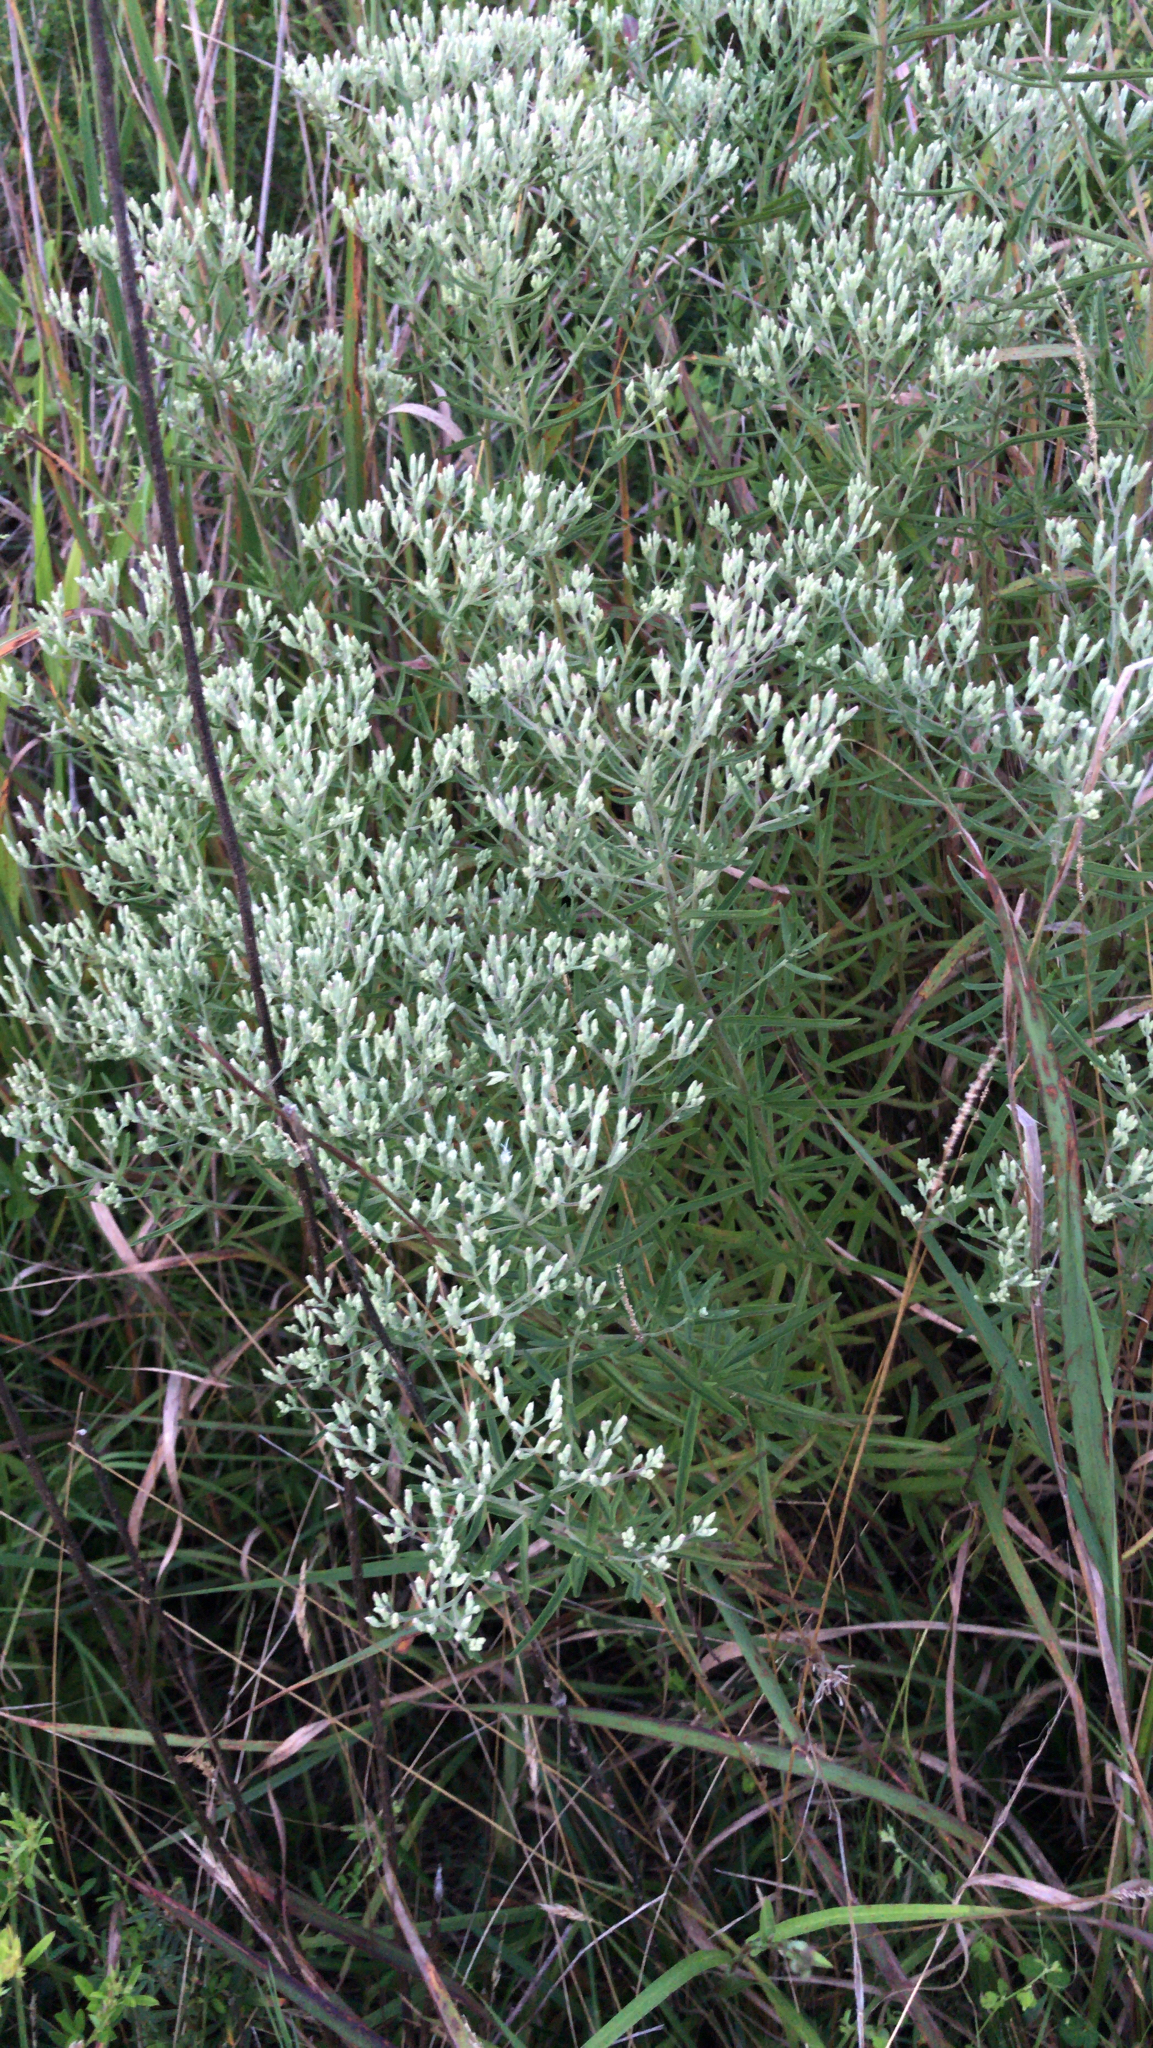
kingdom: Plantae
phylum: Tracheophyta
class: Magnoliopsida
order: Asterales
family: Asteraceae
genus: Eupatorium
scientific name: Eupatorium hyssopifolium
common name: Hyssop-leaf thoroughwort
